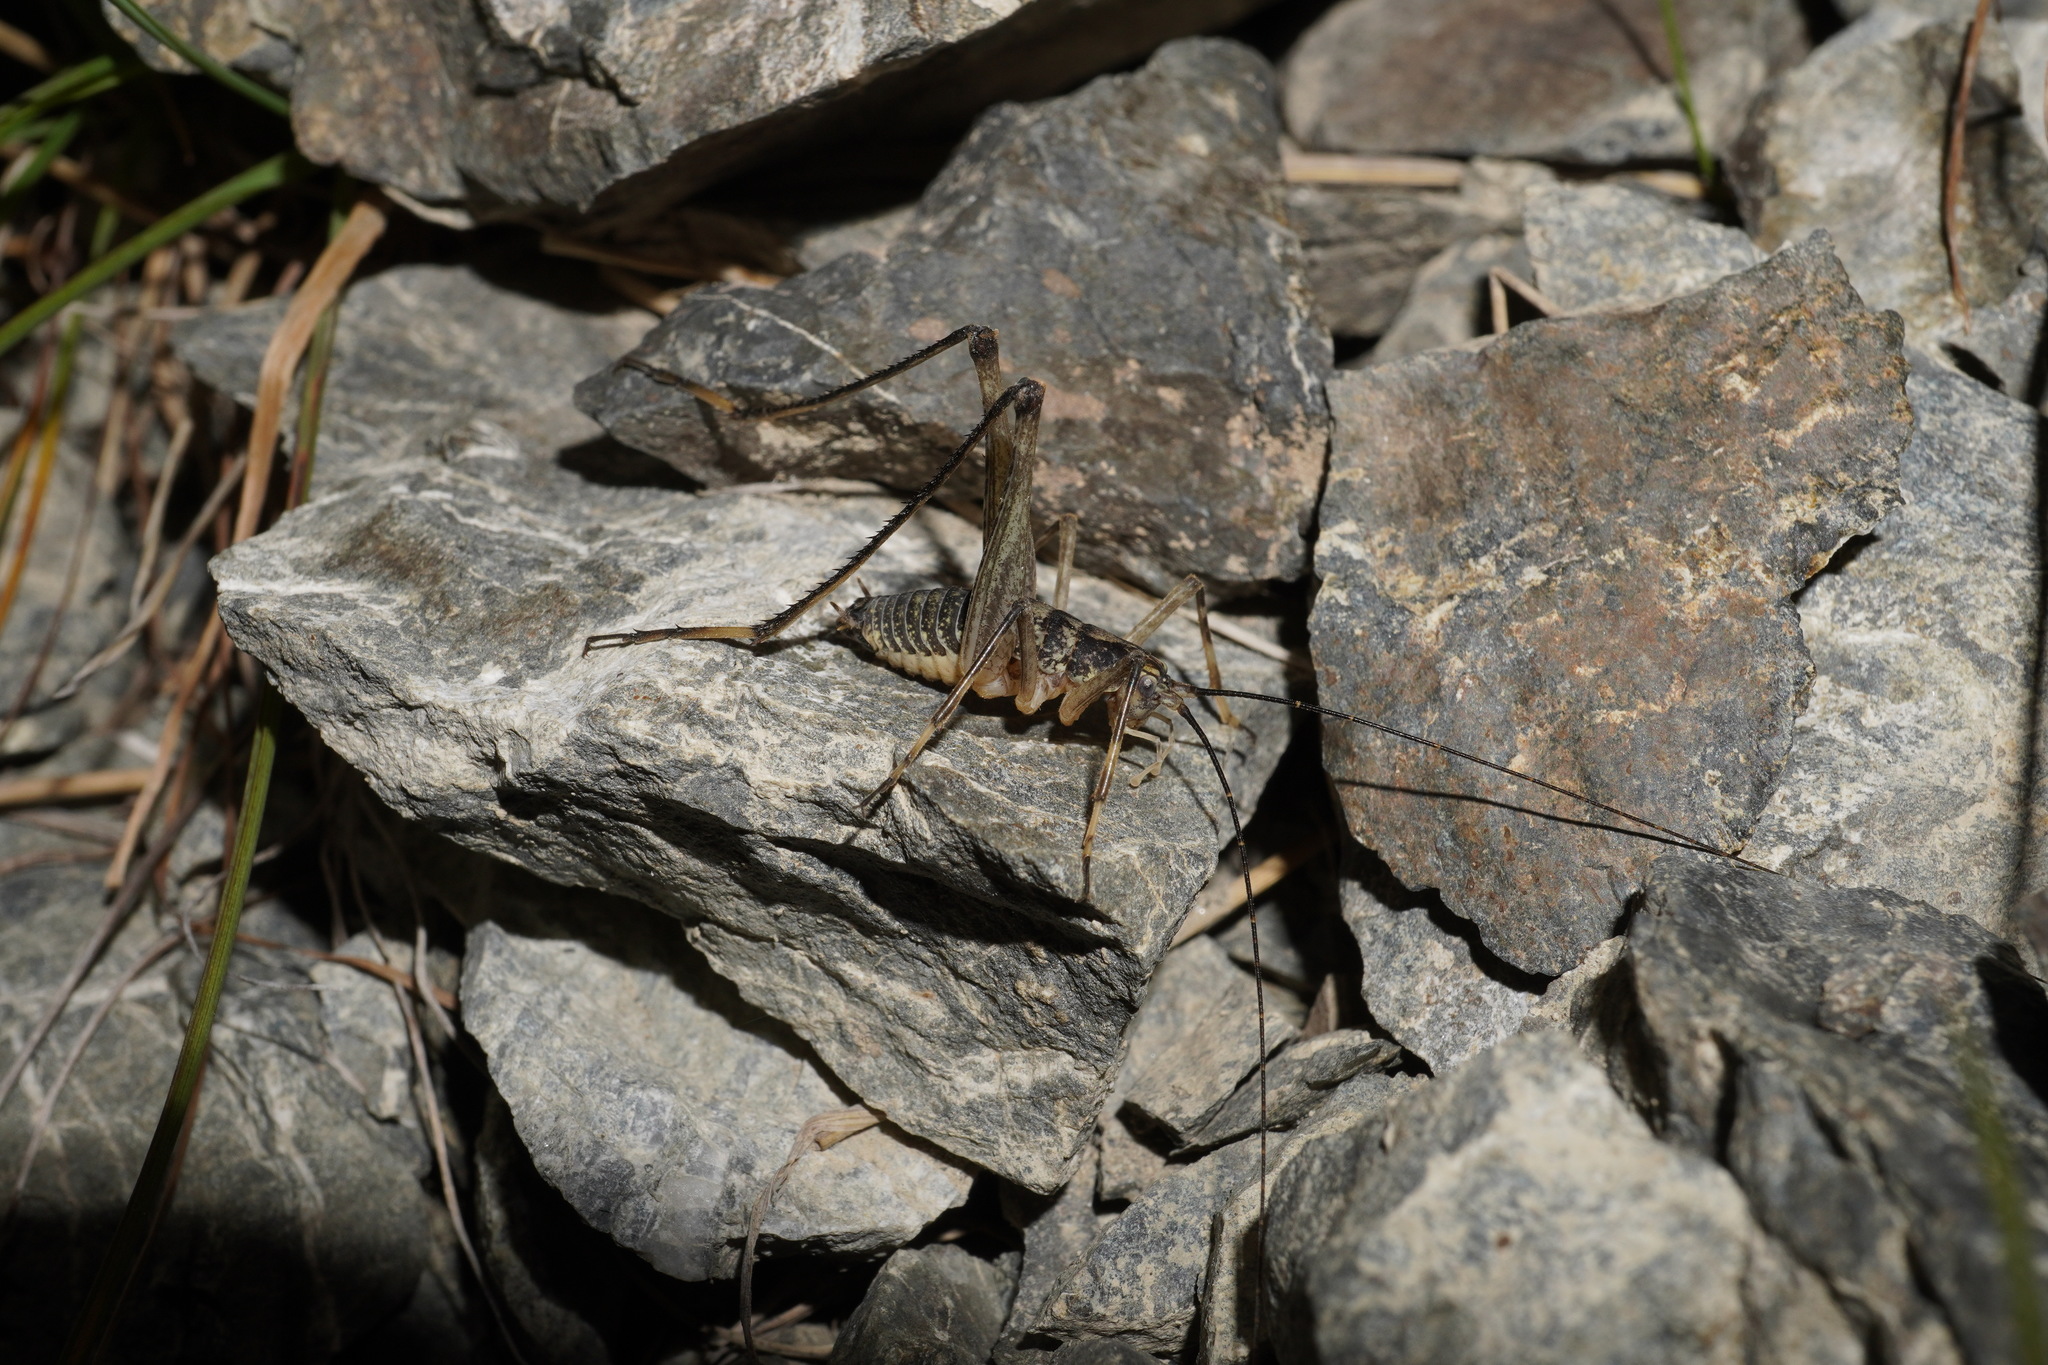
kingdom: Animalia
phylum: Arthropoda
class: Insecta
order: Orthoptera
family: Rhaphidophoridae
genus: Petrotettix
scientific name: Petrotettix serratus
